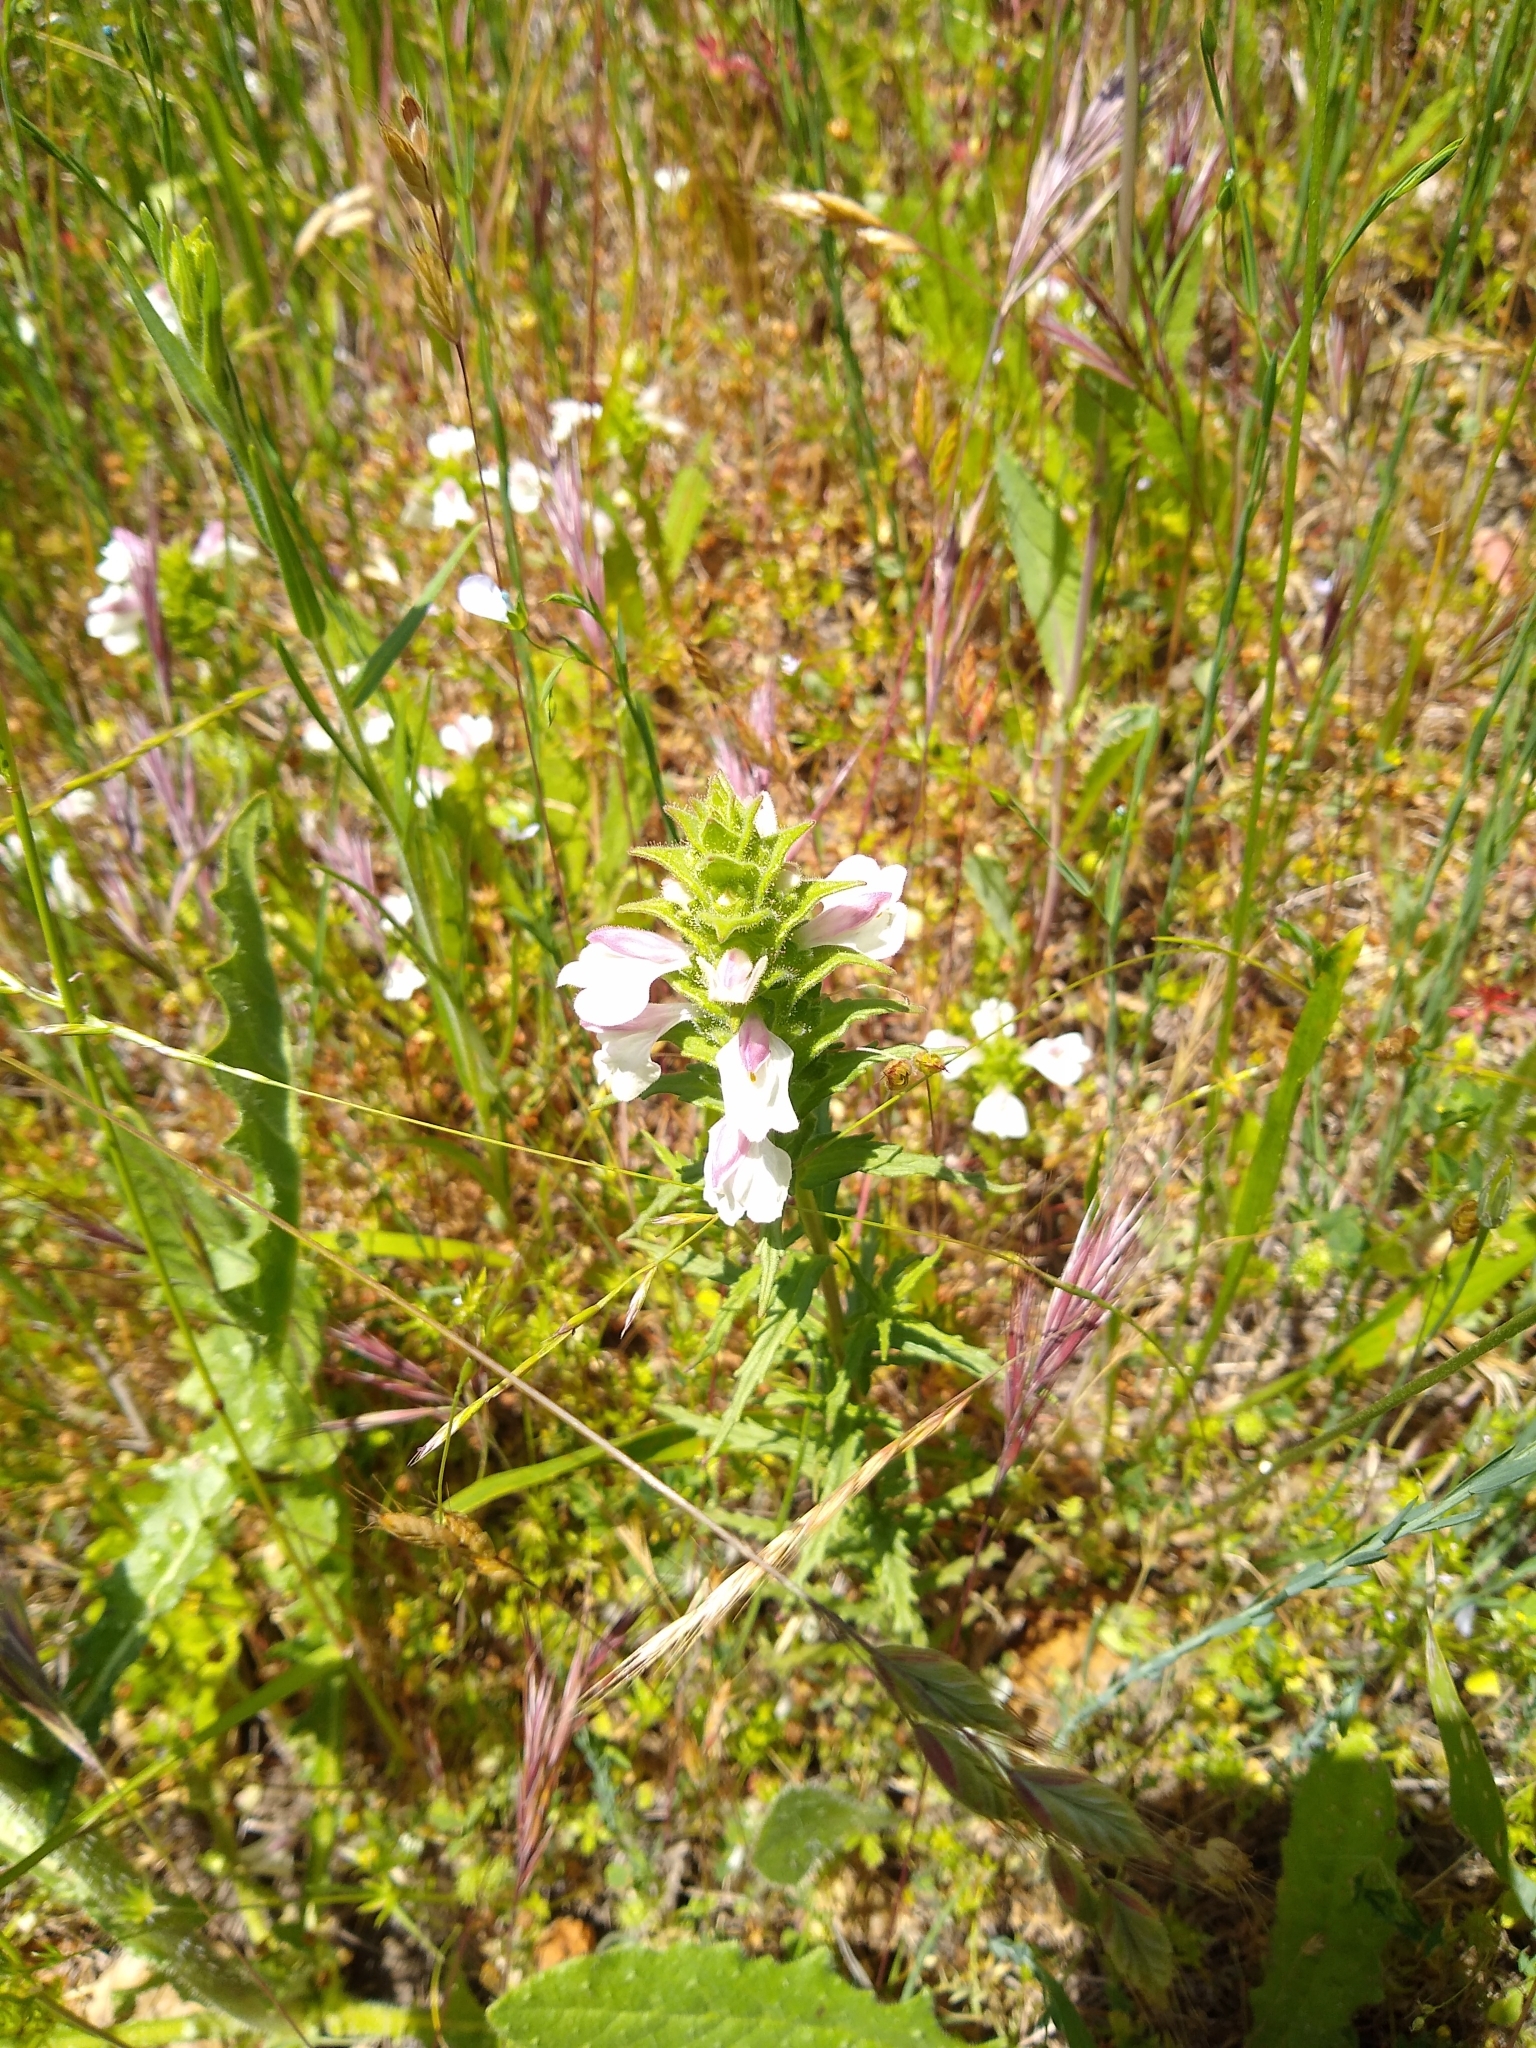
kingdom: Plantae
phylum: Tracheophyta
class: Magnoliopsida
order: Lamiales
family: Orobanchaceae
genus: Bellardia
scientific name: Bellardia trixago
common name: Mediterranean lineseed
